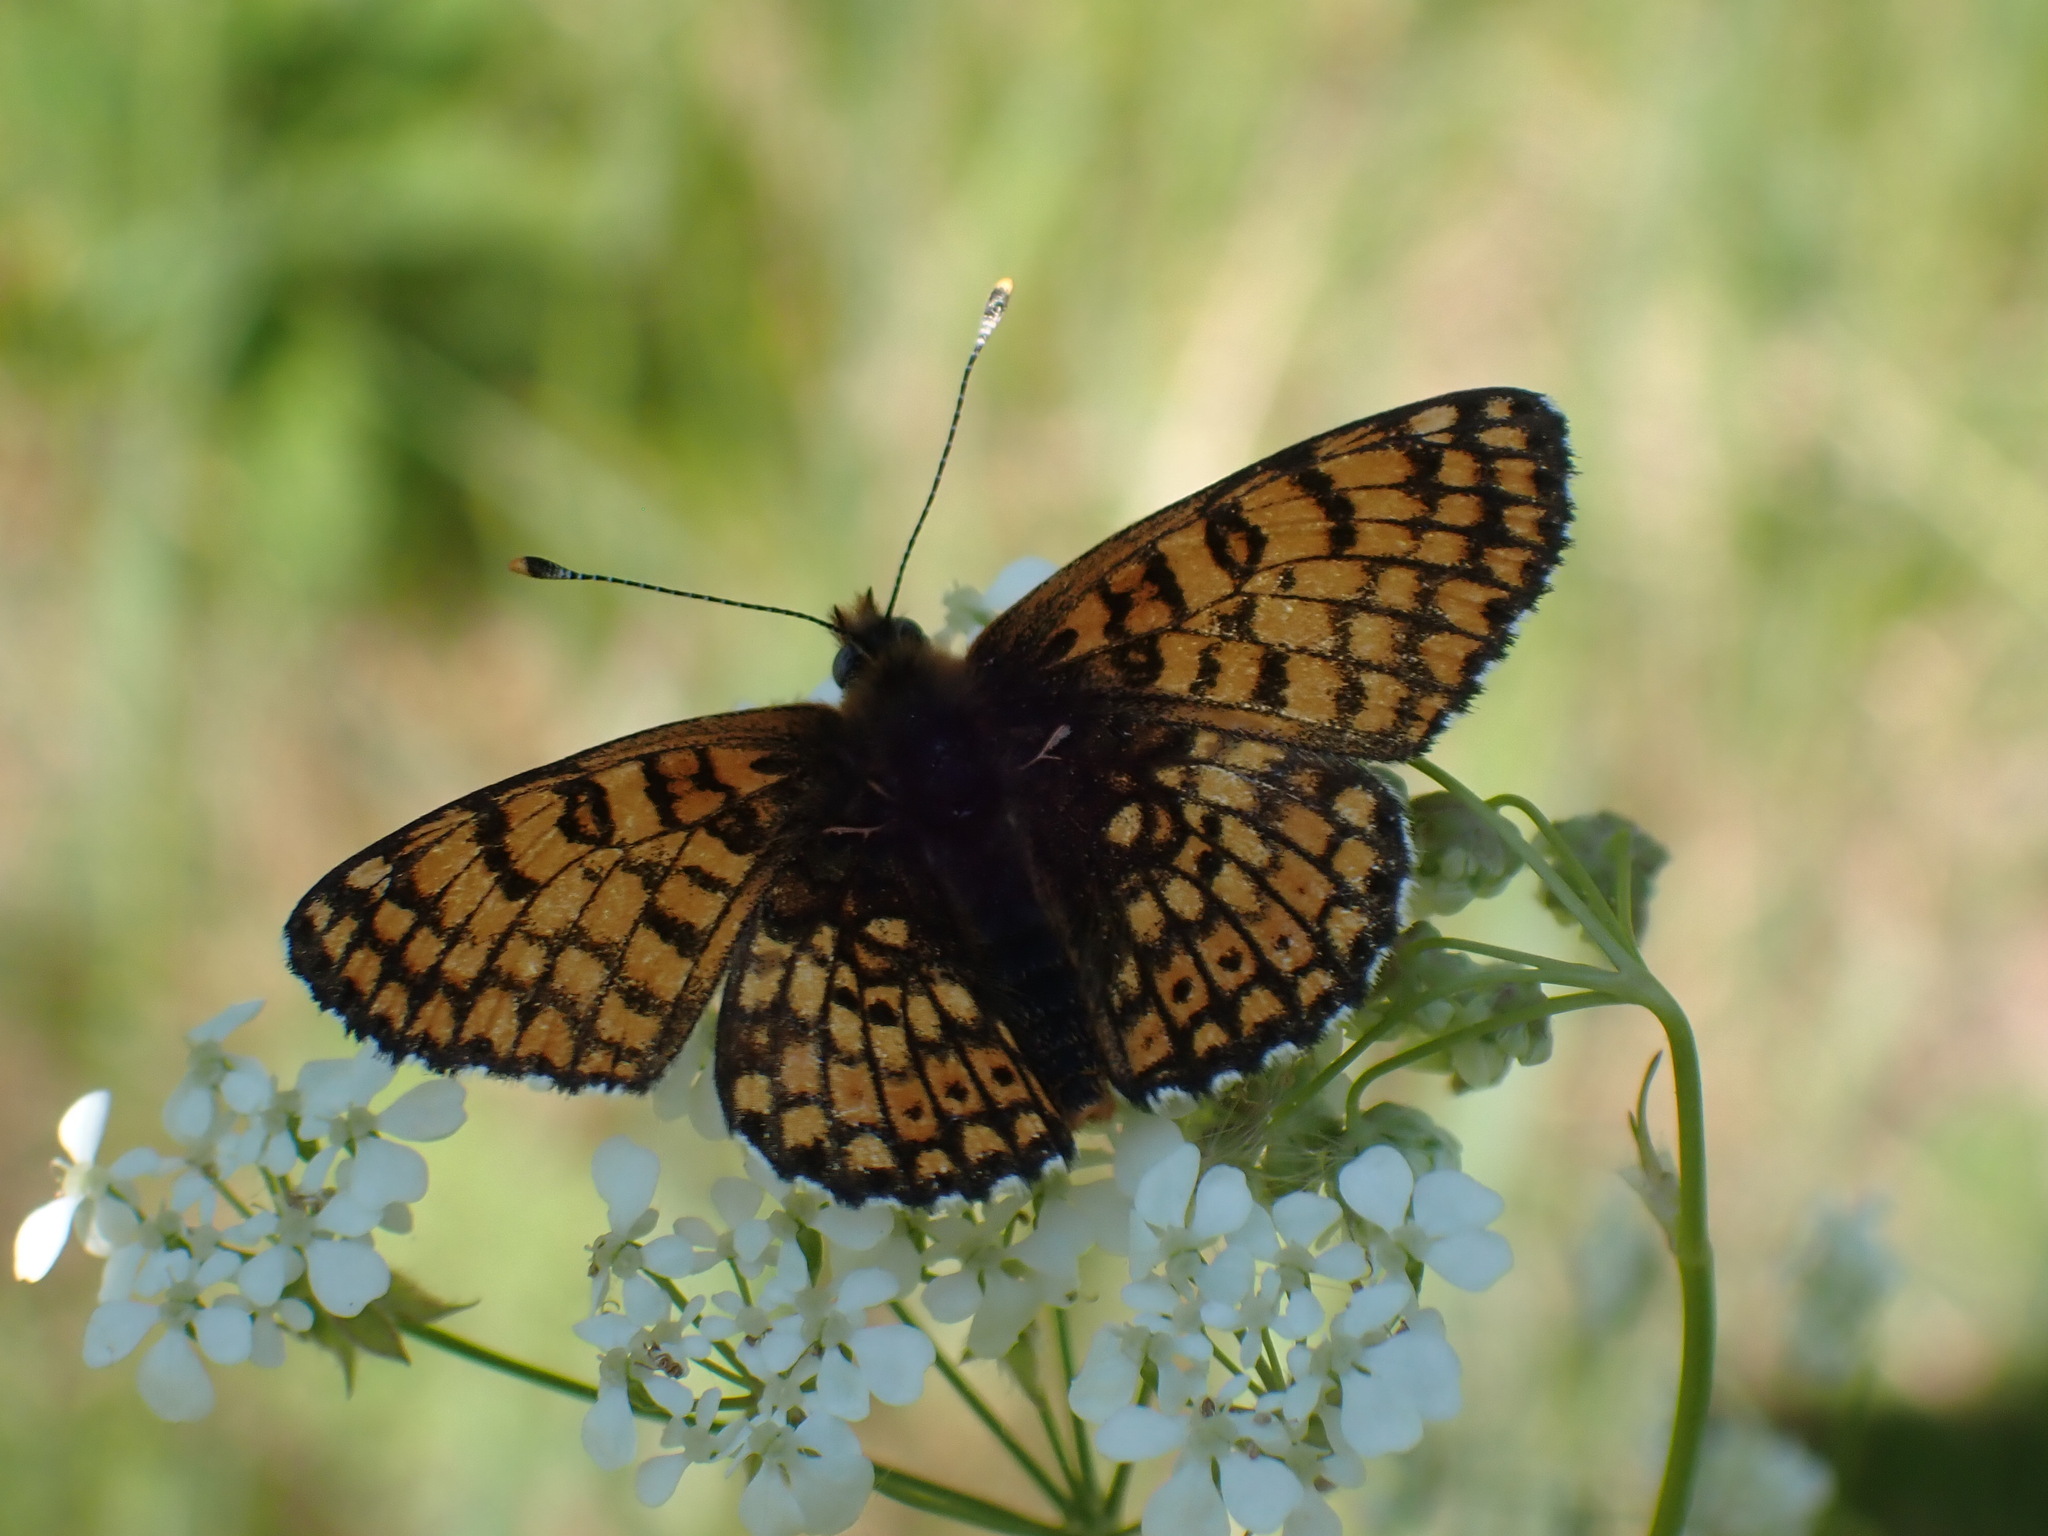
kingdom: Animalia
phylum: Arthropoda
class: Insecta
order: Lepidoptera
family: Nymphalidae
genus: Melitaea
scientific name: Melitaea cinxia
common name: Glanville fritillary
